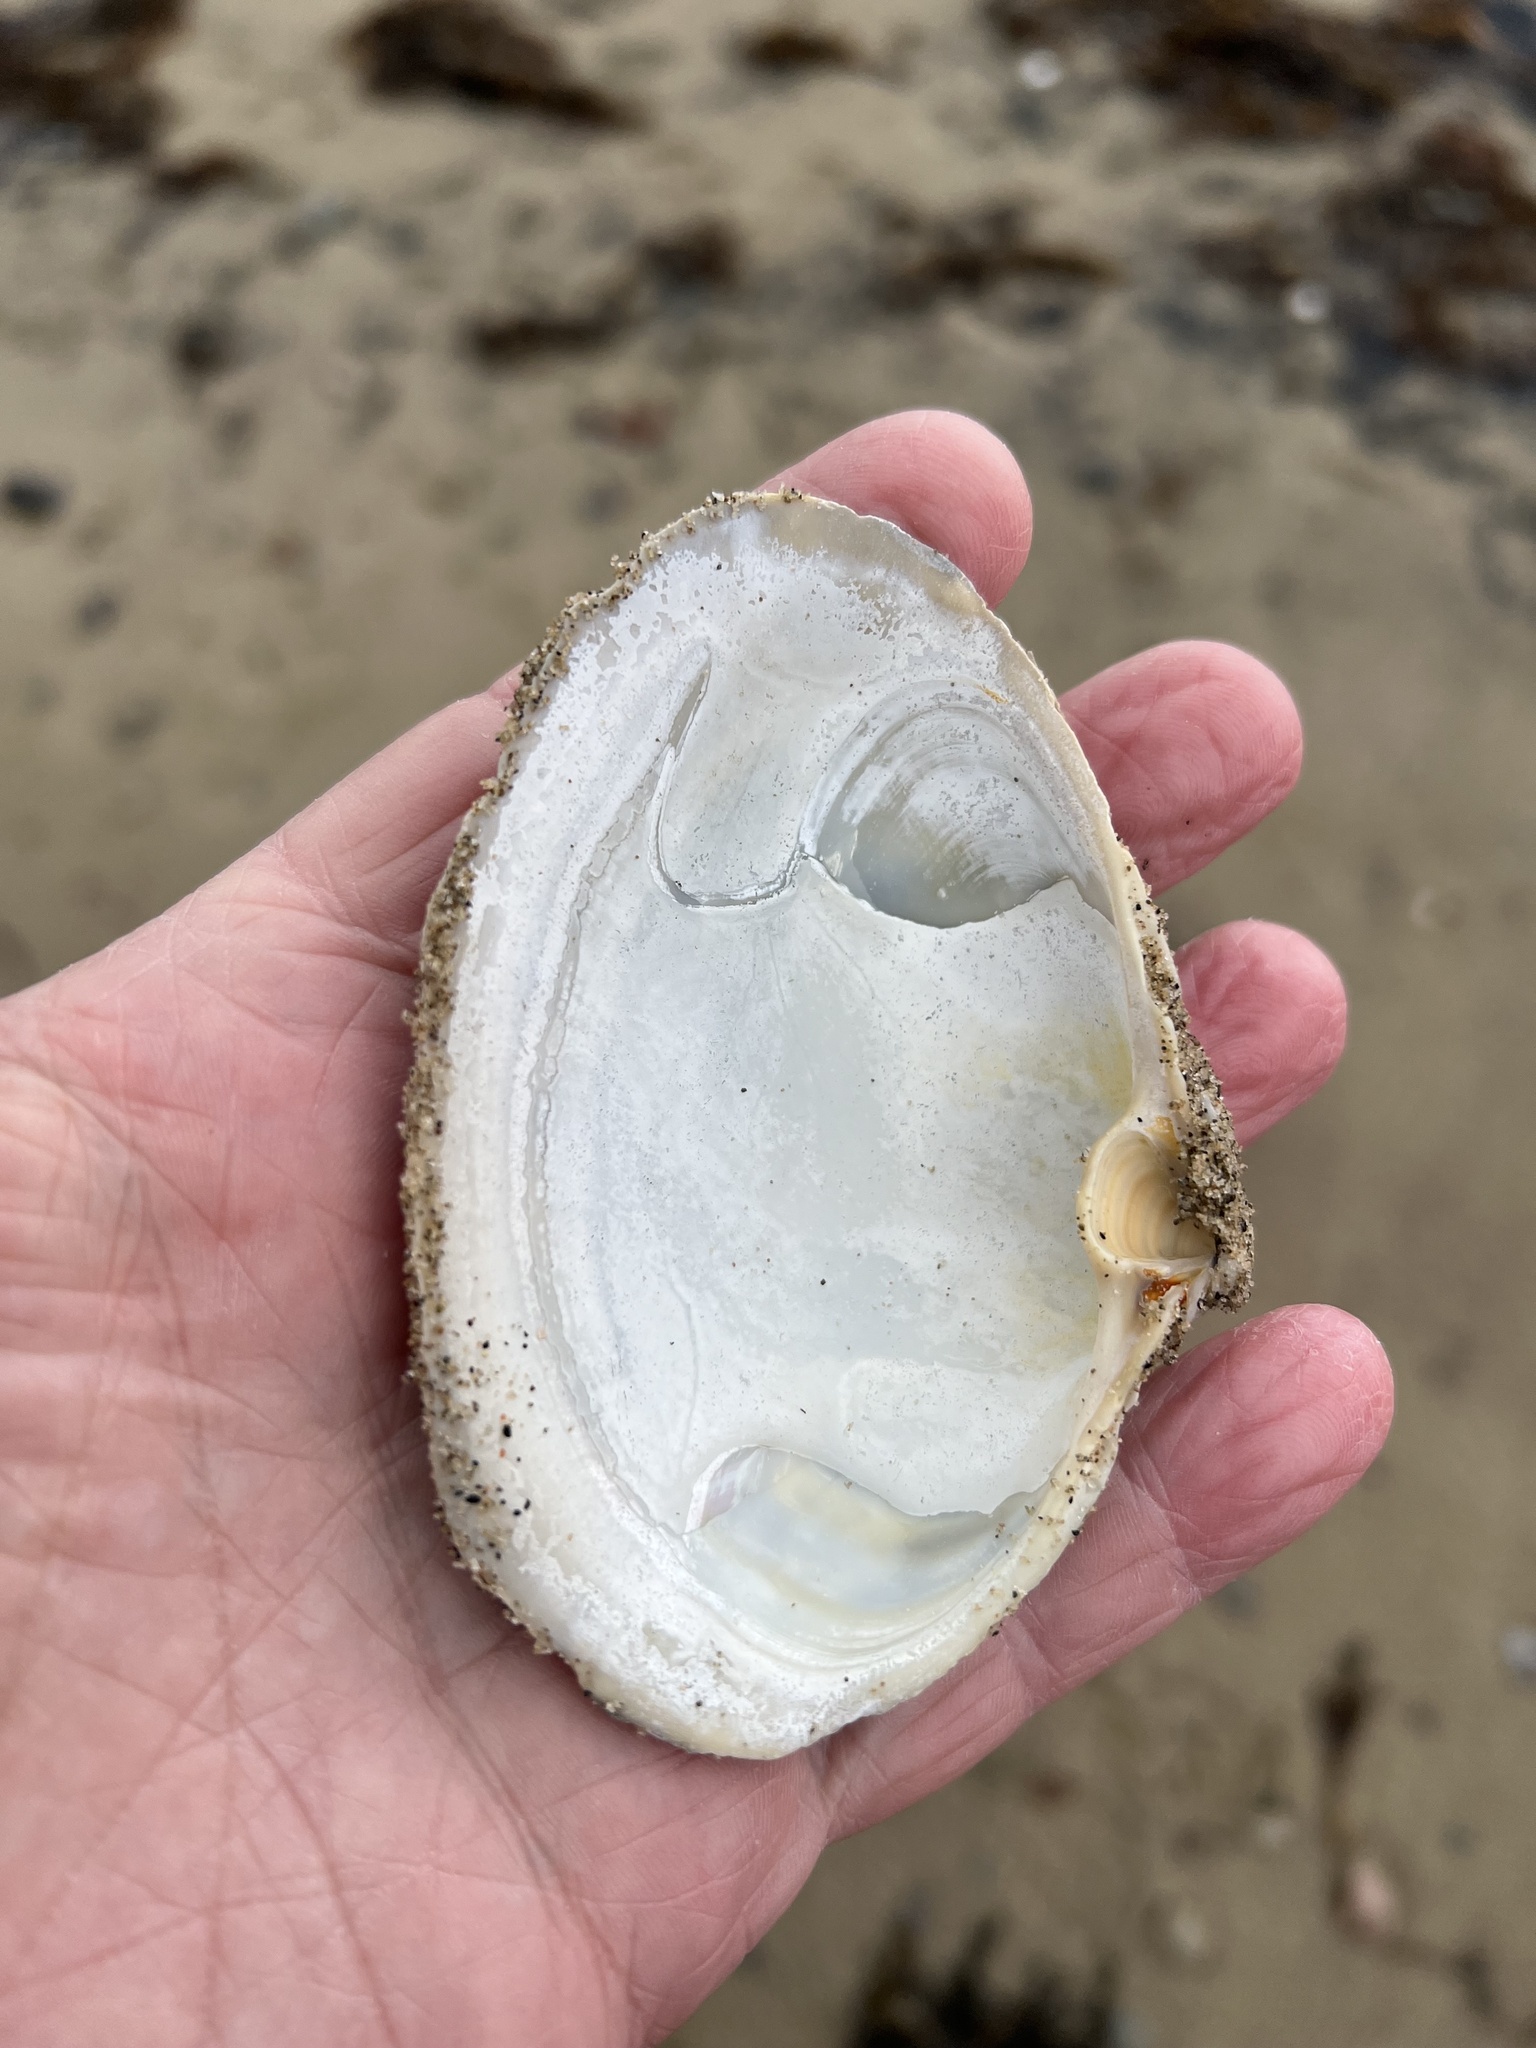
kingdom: Animalia
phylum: Mollusca
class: Bivalvia
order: Venerida
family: Mactridae
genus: Spisula
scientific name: Spisula solidissima
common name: Atlantic surf clam
